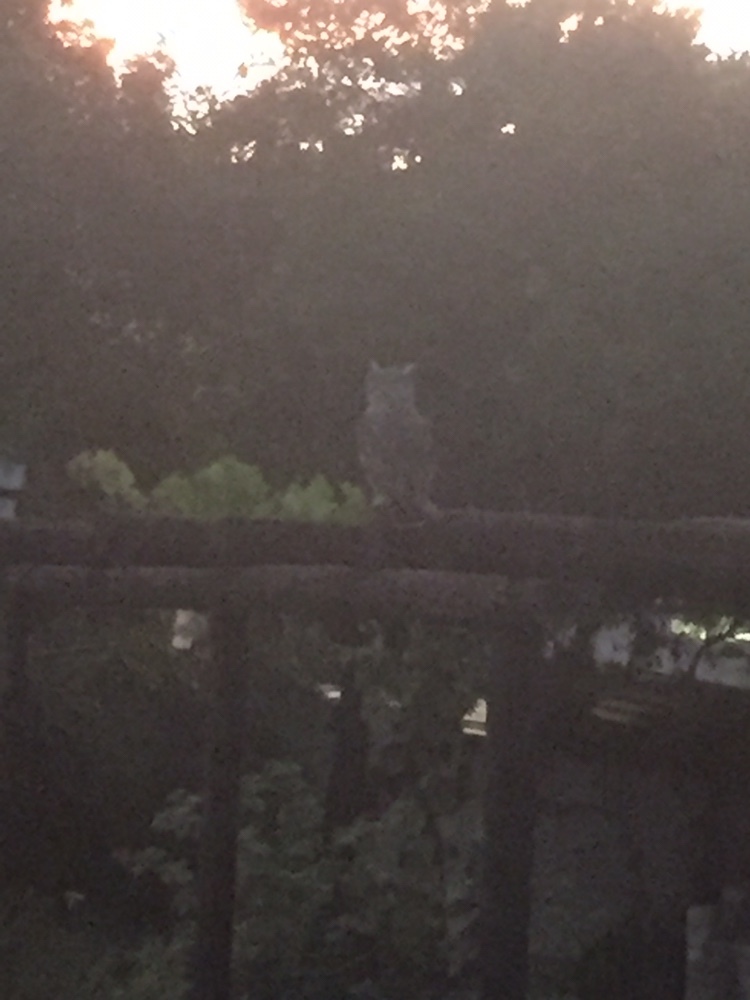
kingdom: Animalia
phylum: Chordata
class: Aves
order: Strigiformes
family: Strigidae
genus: Bubo
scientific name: Bubo africanus
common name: Spotted eagle-owl
